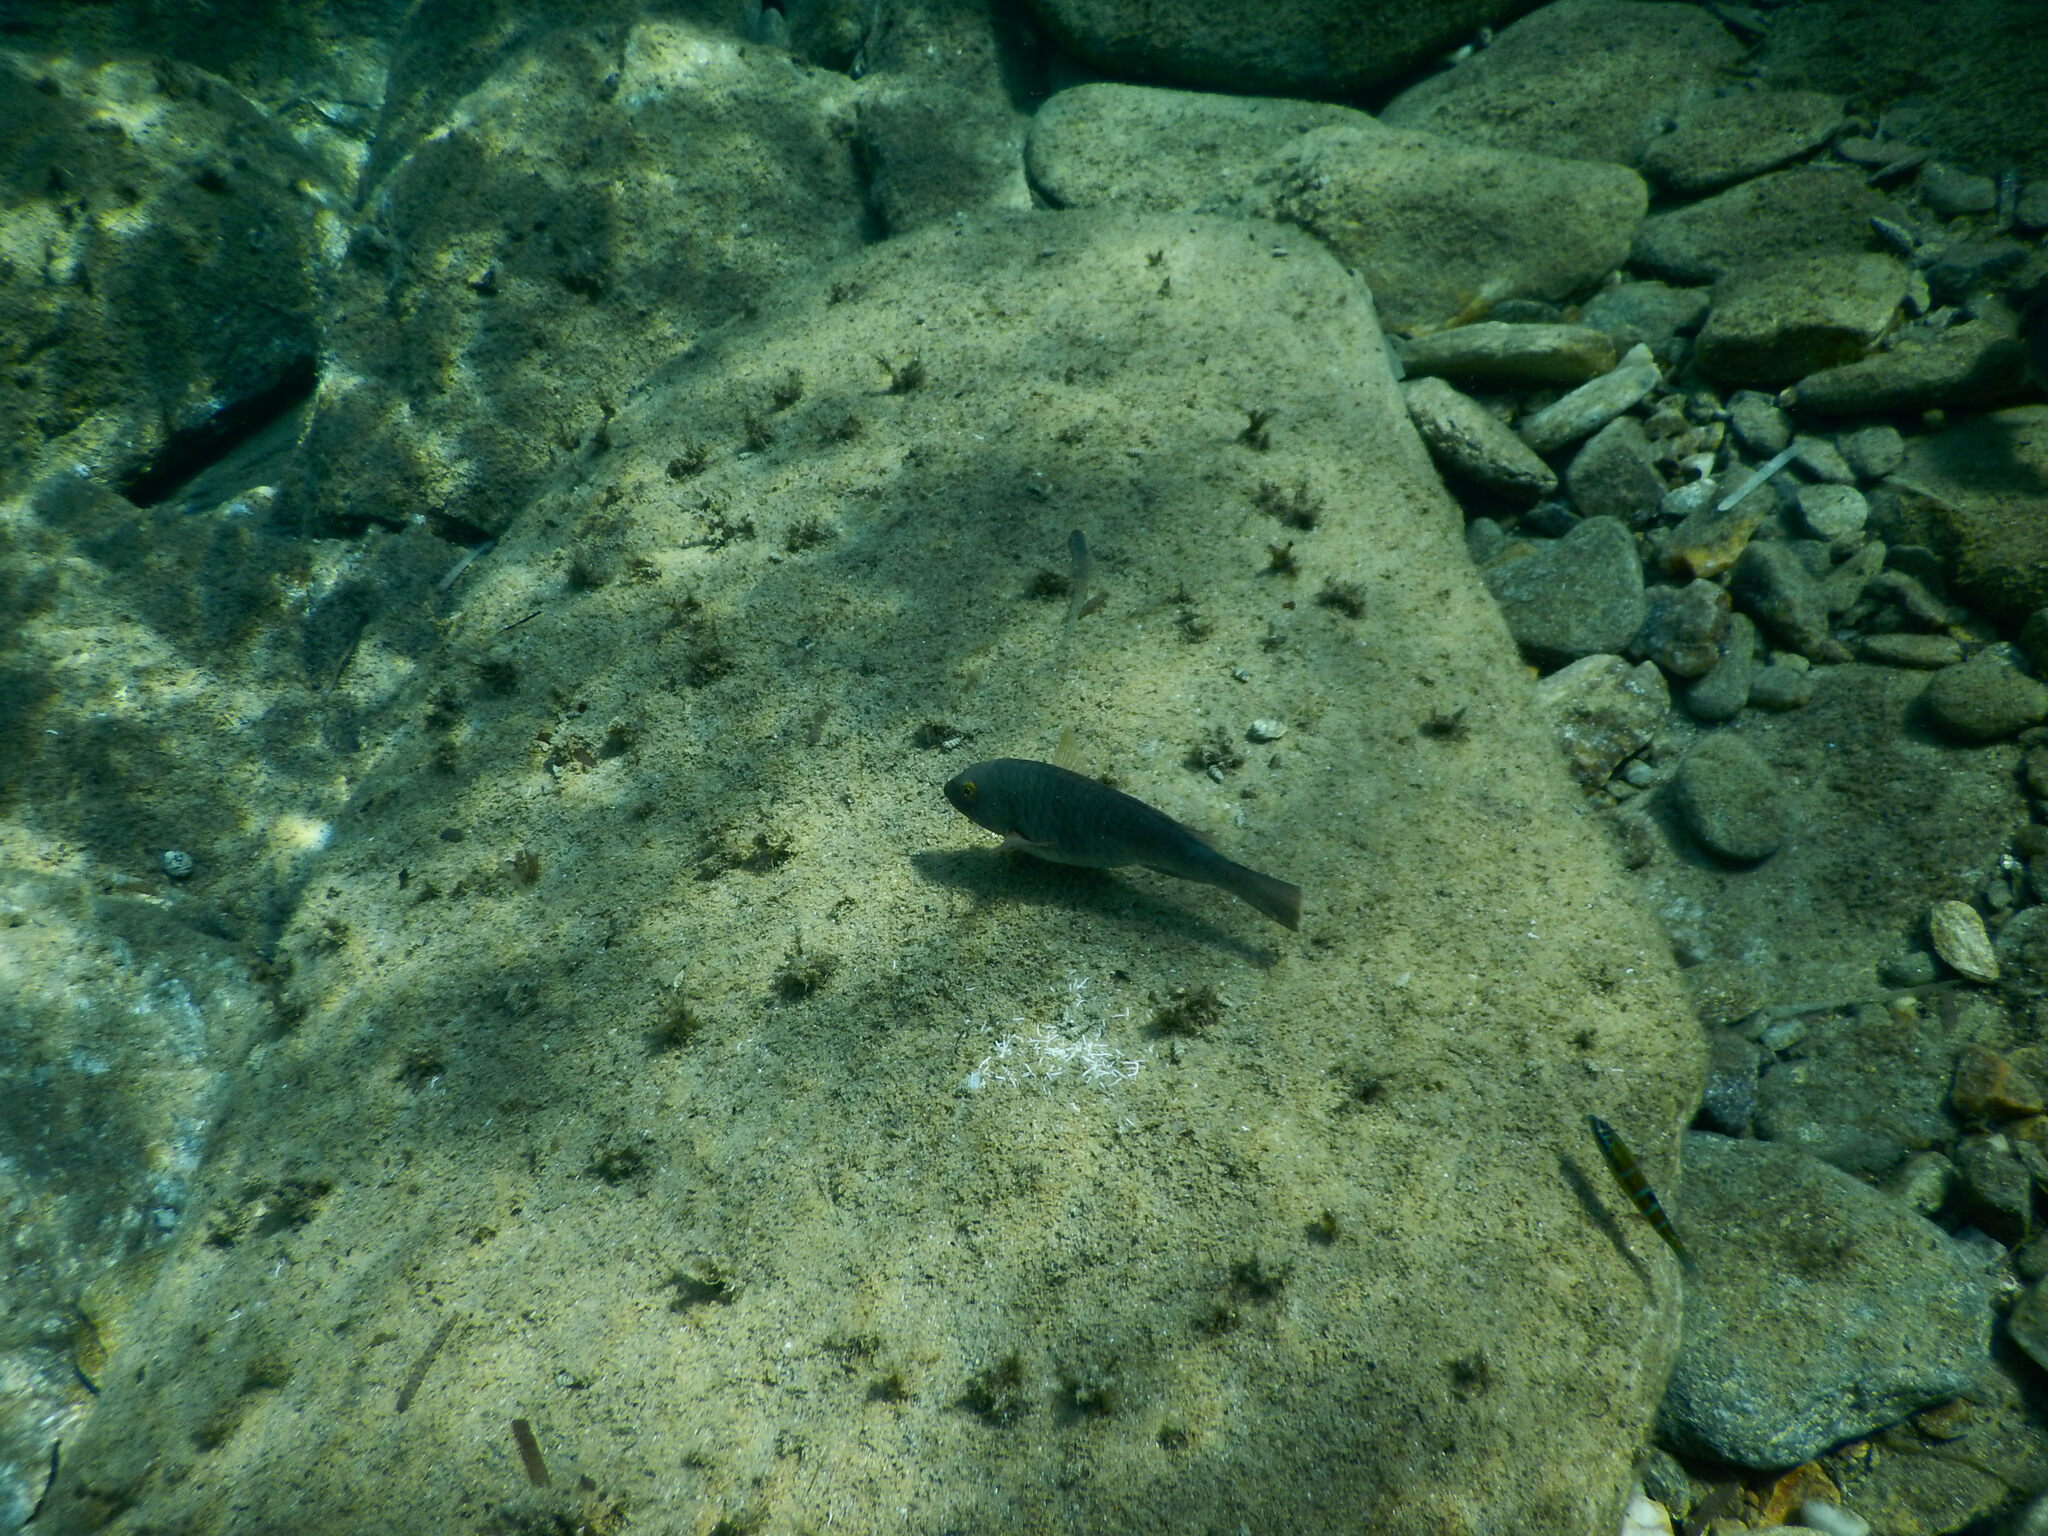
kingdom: Animalia
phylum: Chordata
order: Perciformes
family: Scaridae
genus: Sparisoma
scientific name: Sparisoma cretense
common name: Parrotfish
